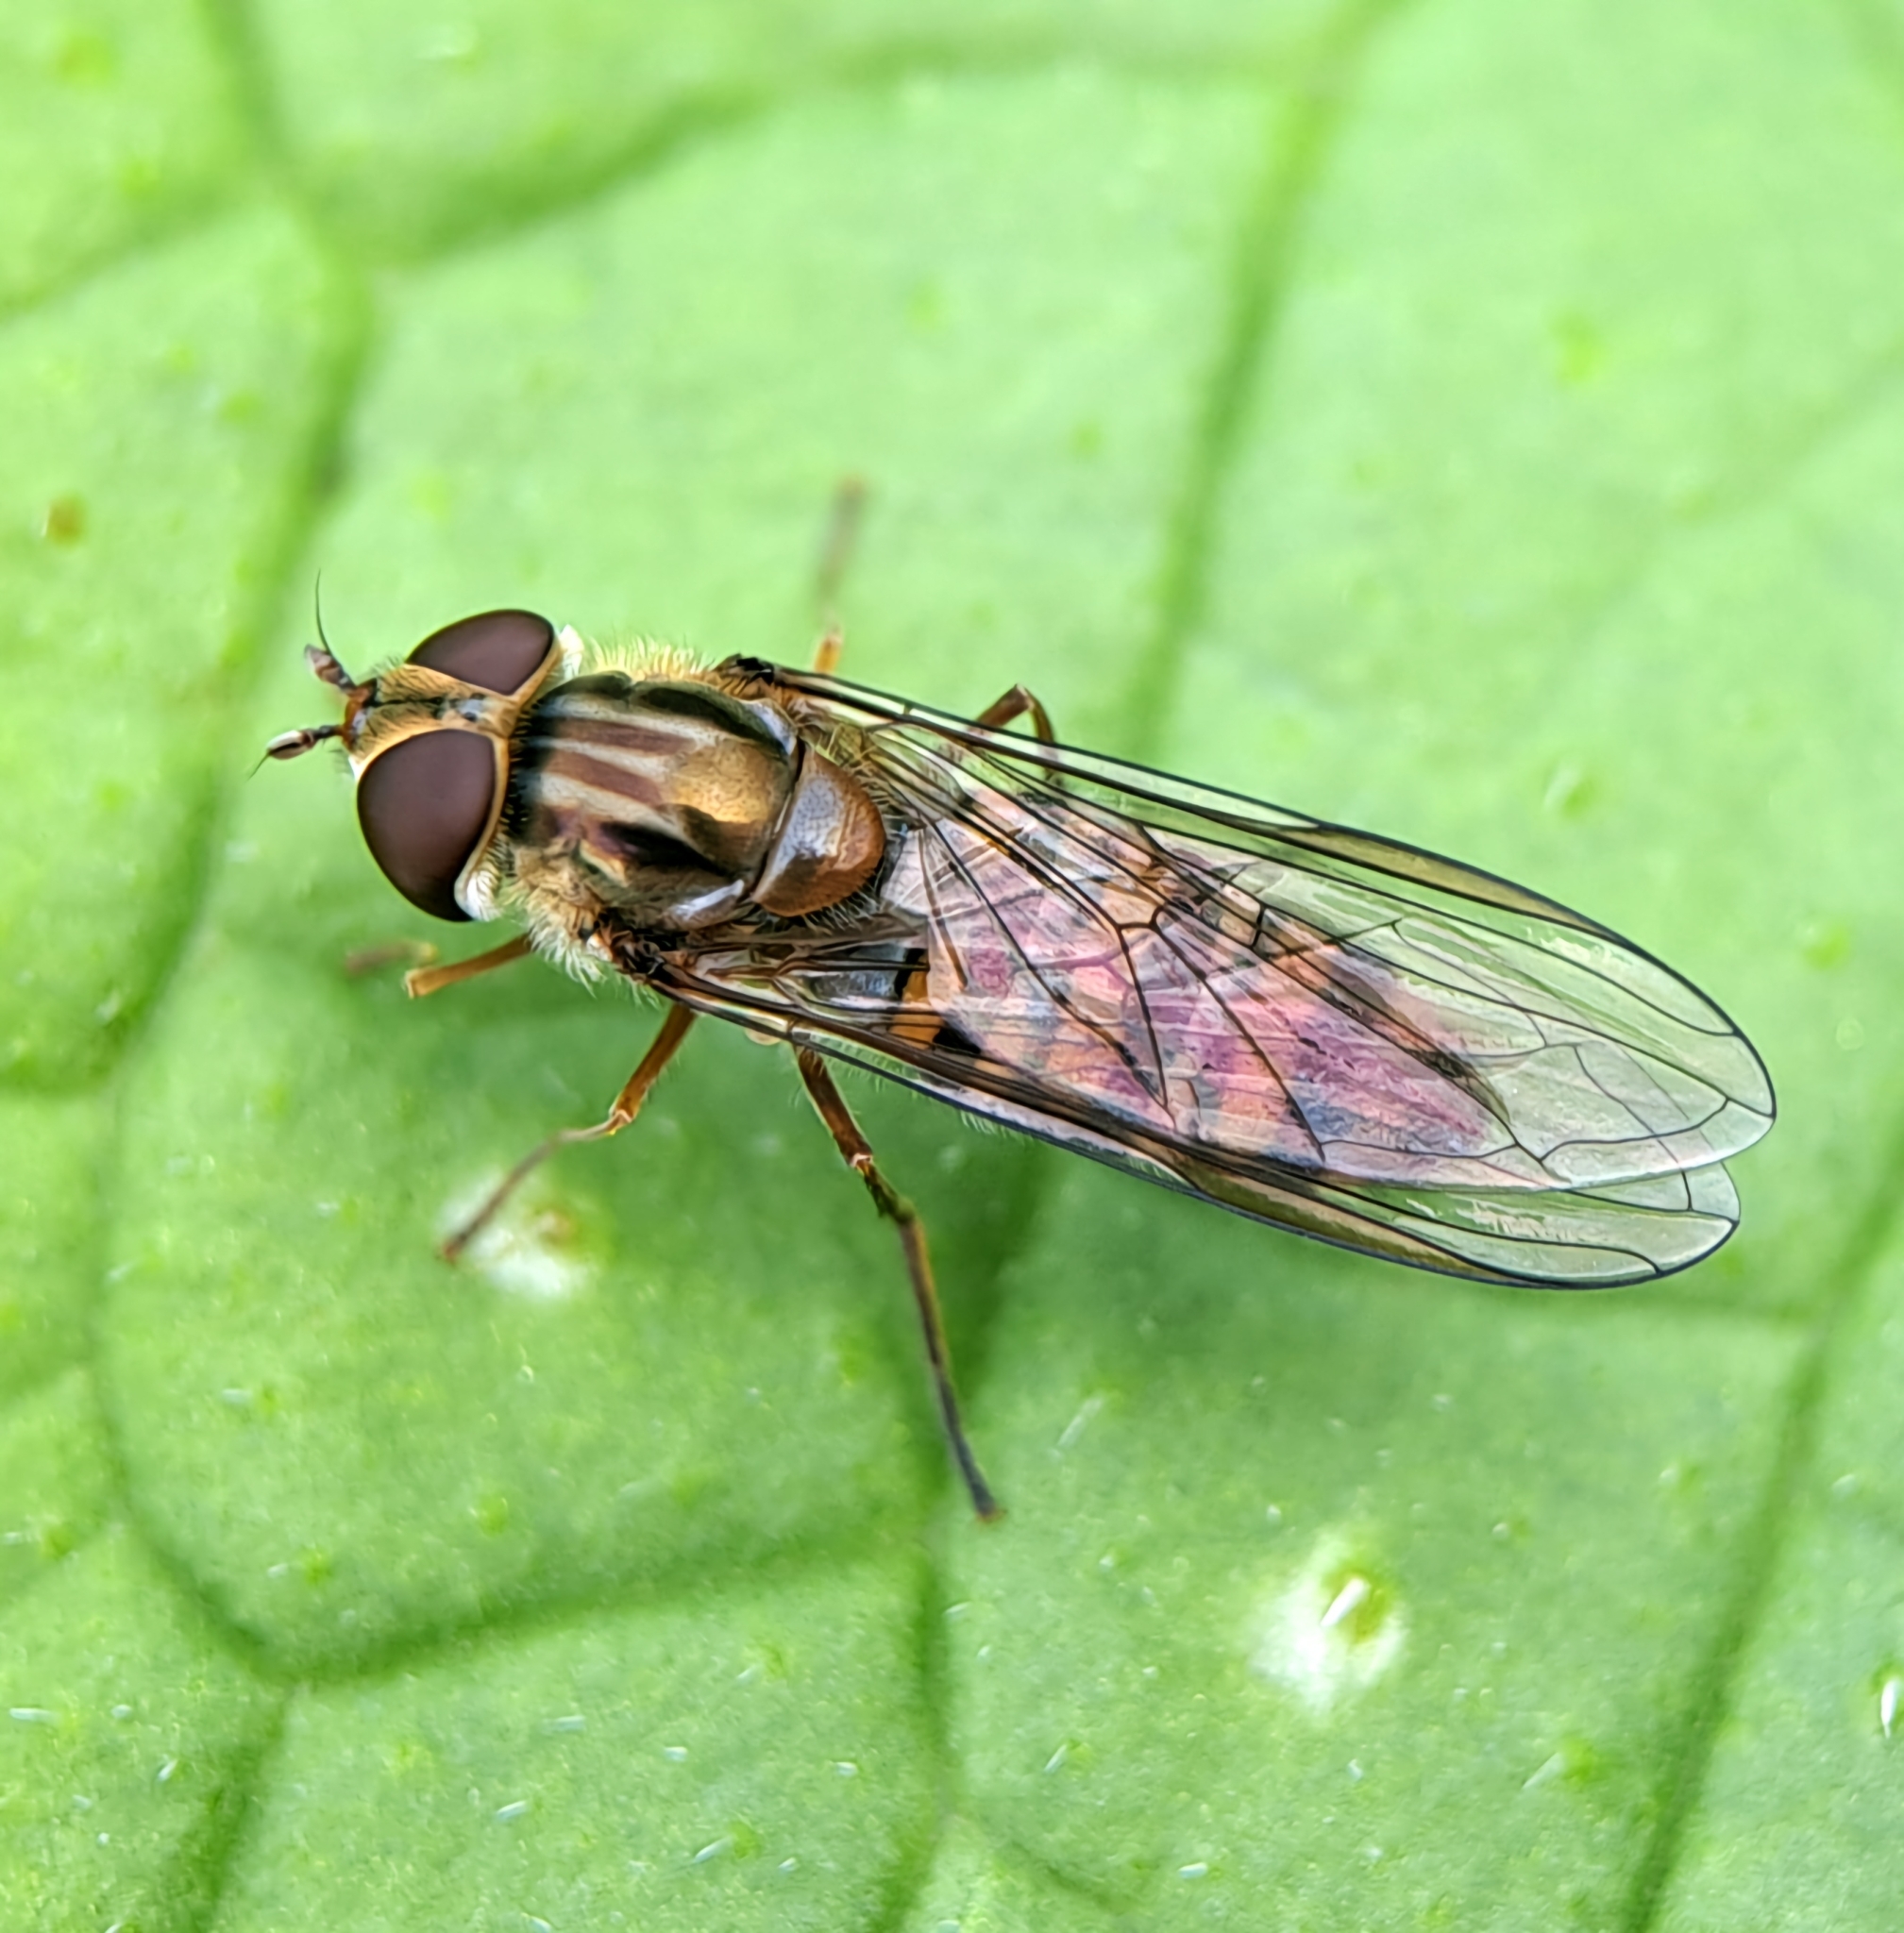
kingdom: Animalia
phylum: Arthropoda
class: Insecta
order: Diptera
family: Syrphidae
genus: Episyrphus
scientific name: Episyrphus balteatus
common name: Marmalade hoverfly
